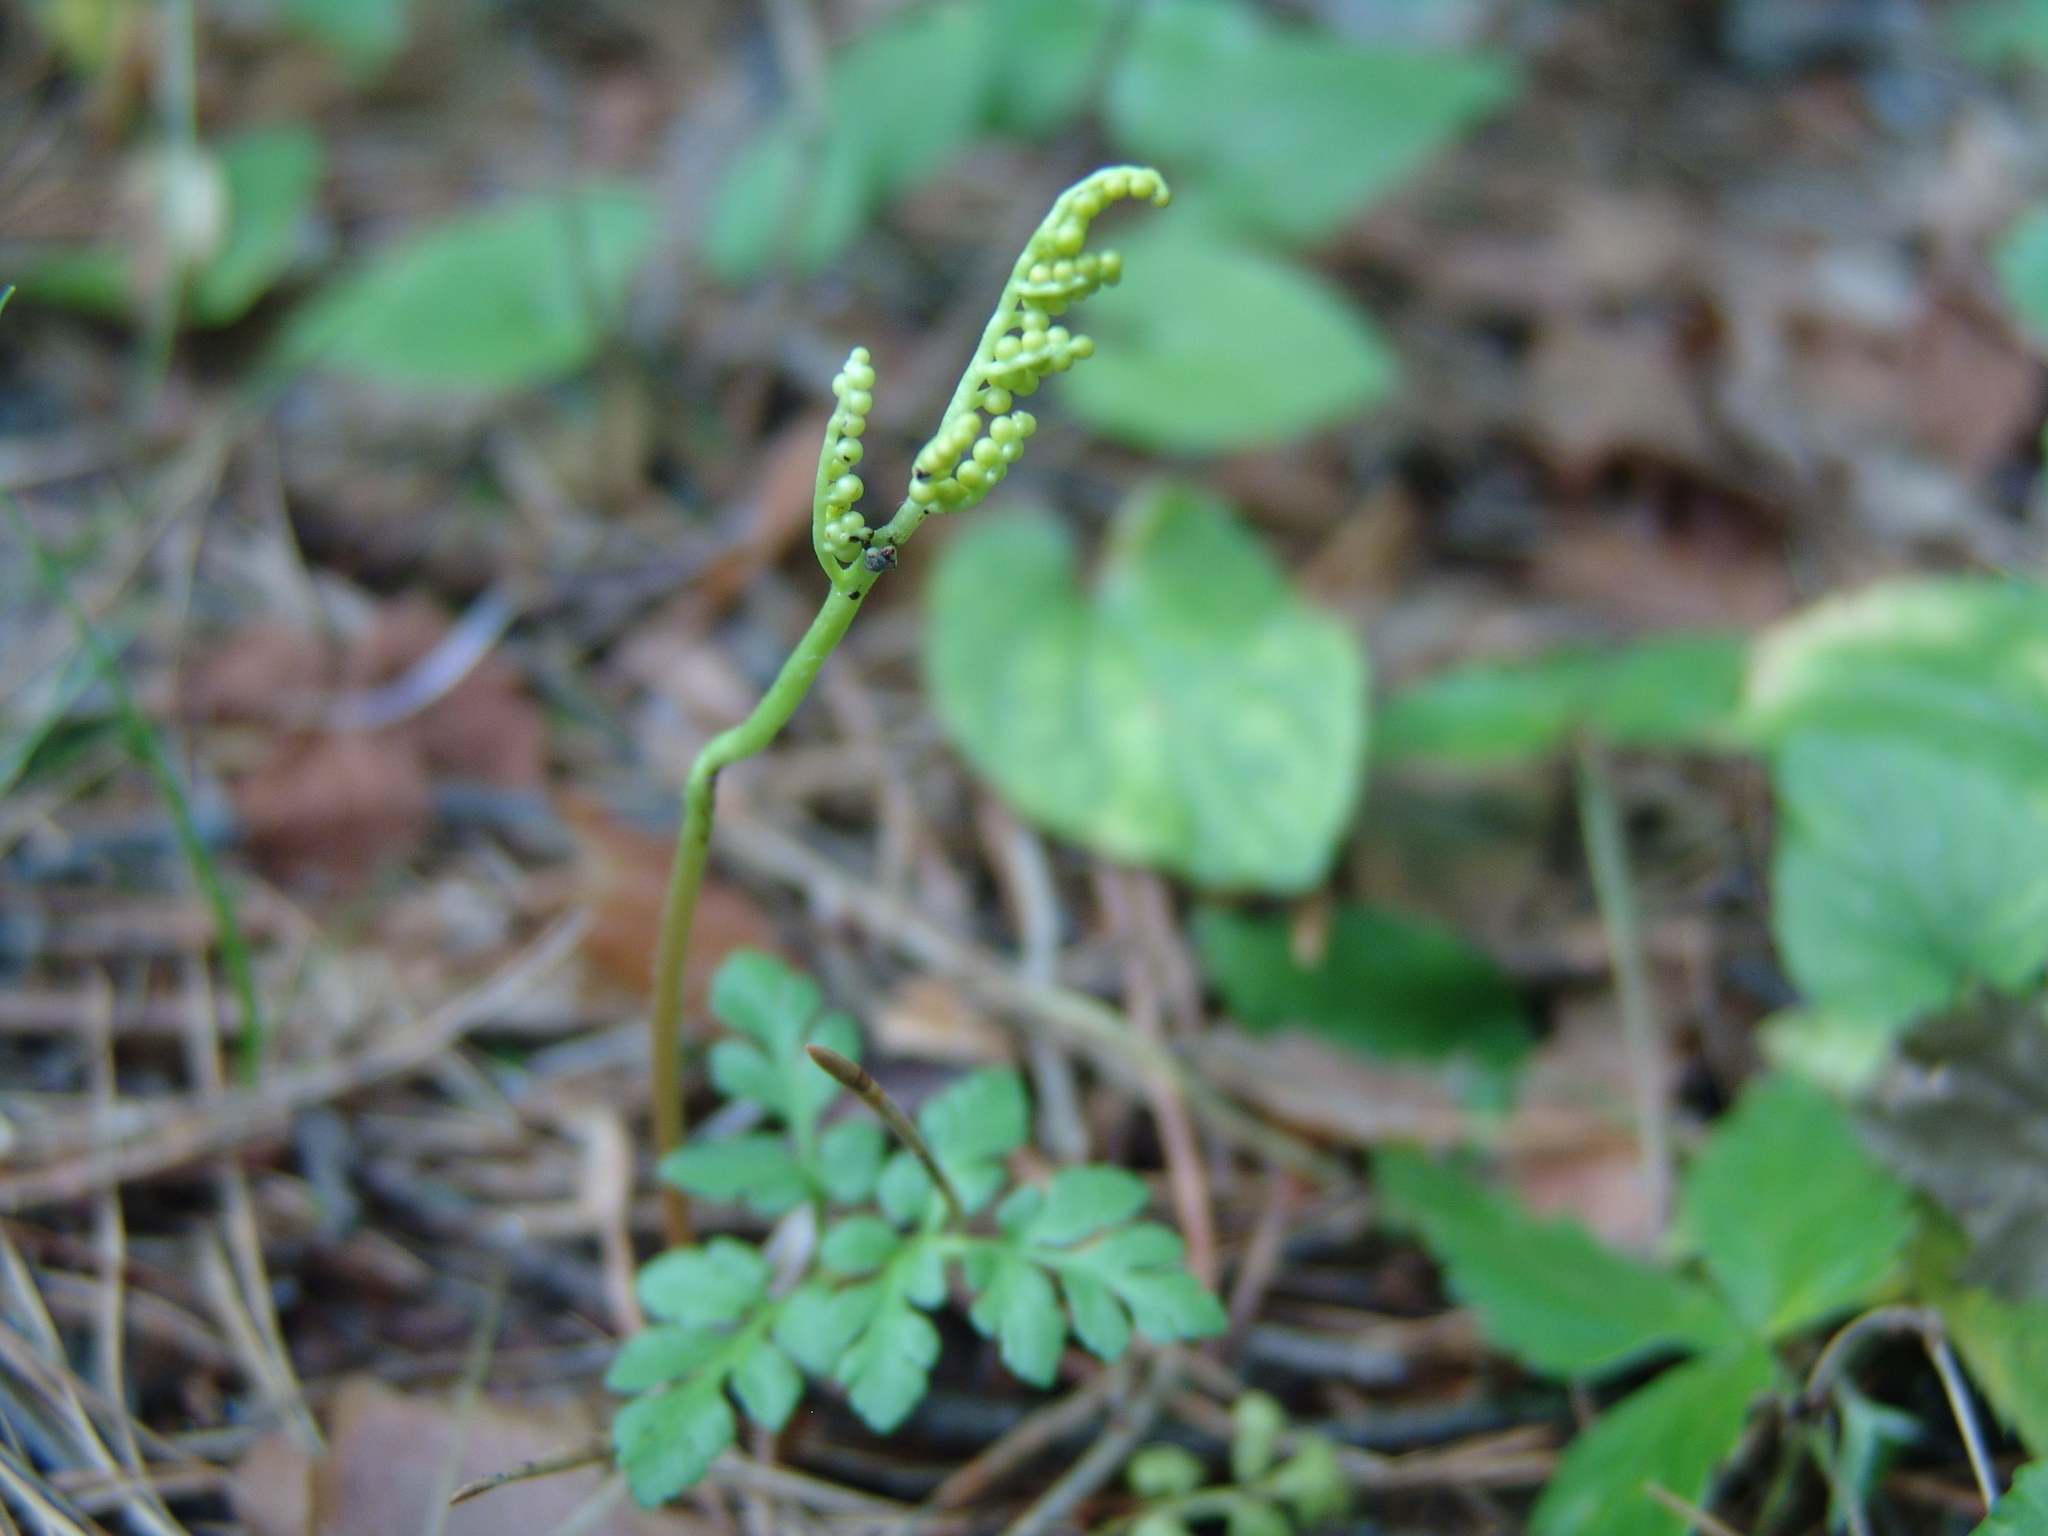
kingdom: Plantae
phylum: Tracheophyta
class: Polypodiopsida
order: Ophioglossales
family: Ophioglossaceae
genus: Sceptridium
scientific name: Sceptridium multifidum
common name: Leathery grape fern
